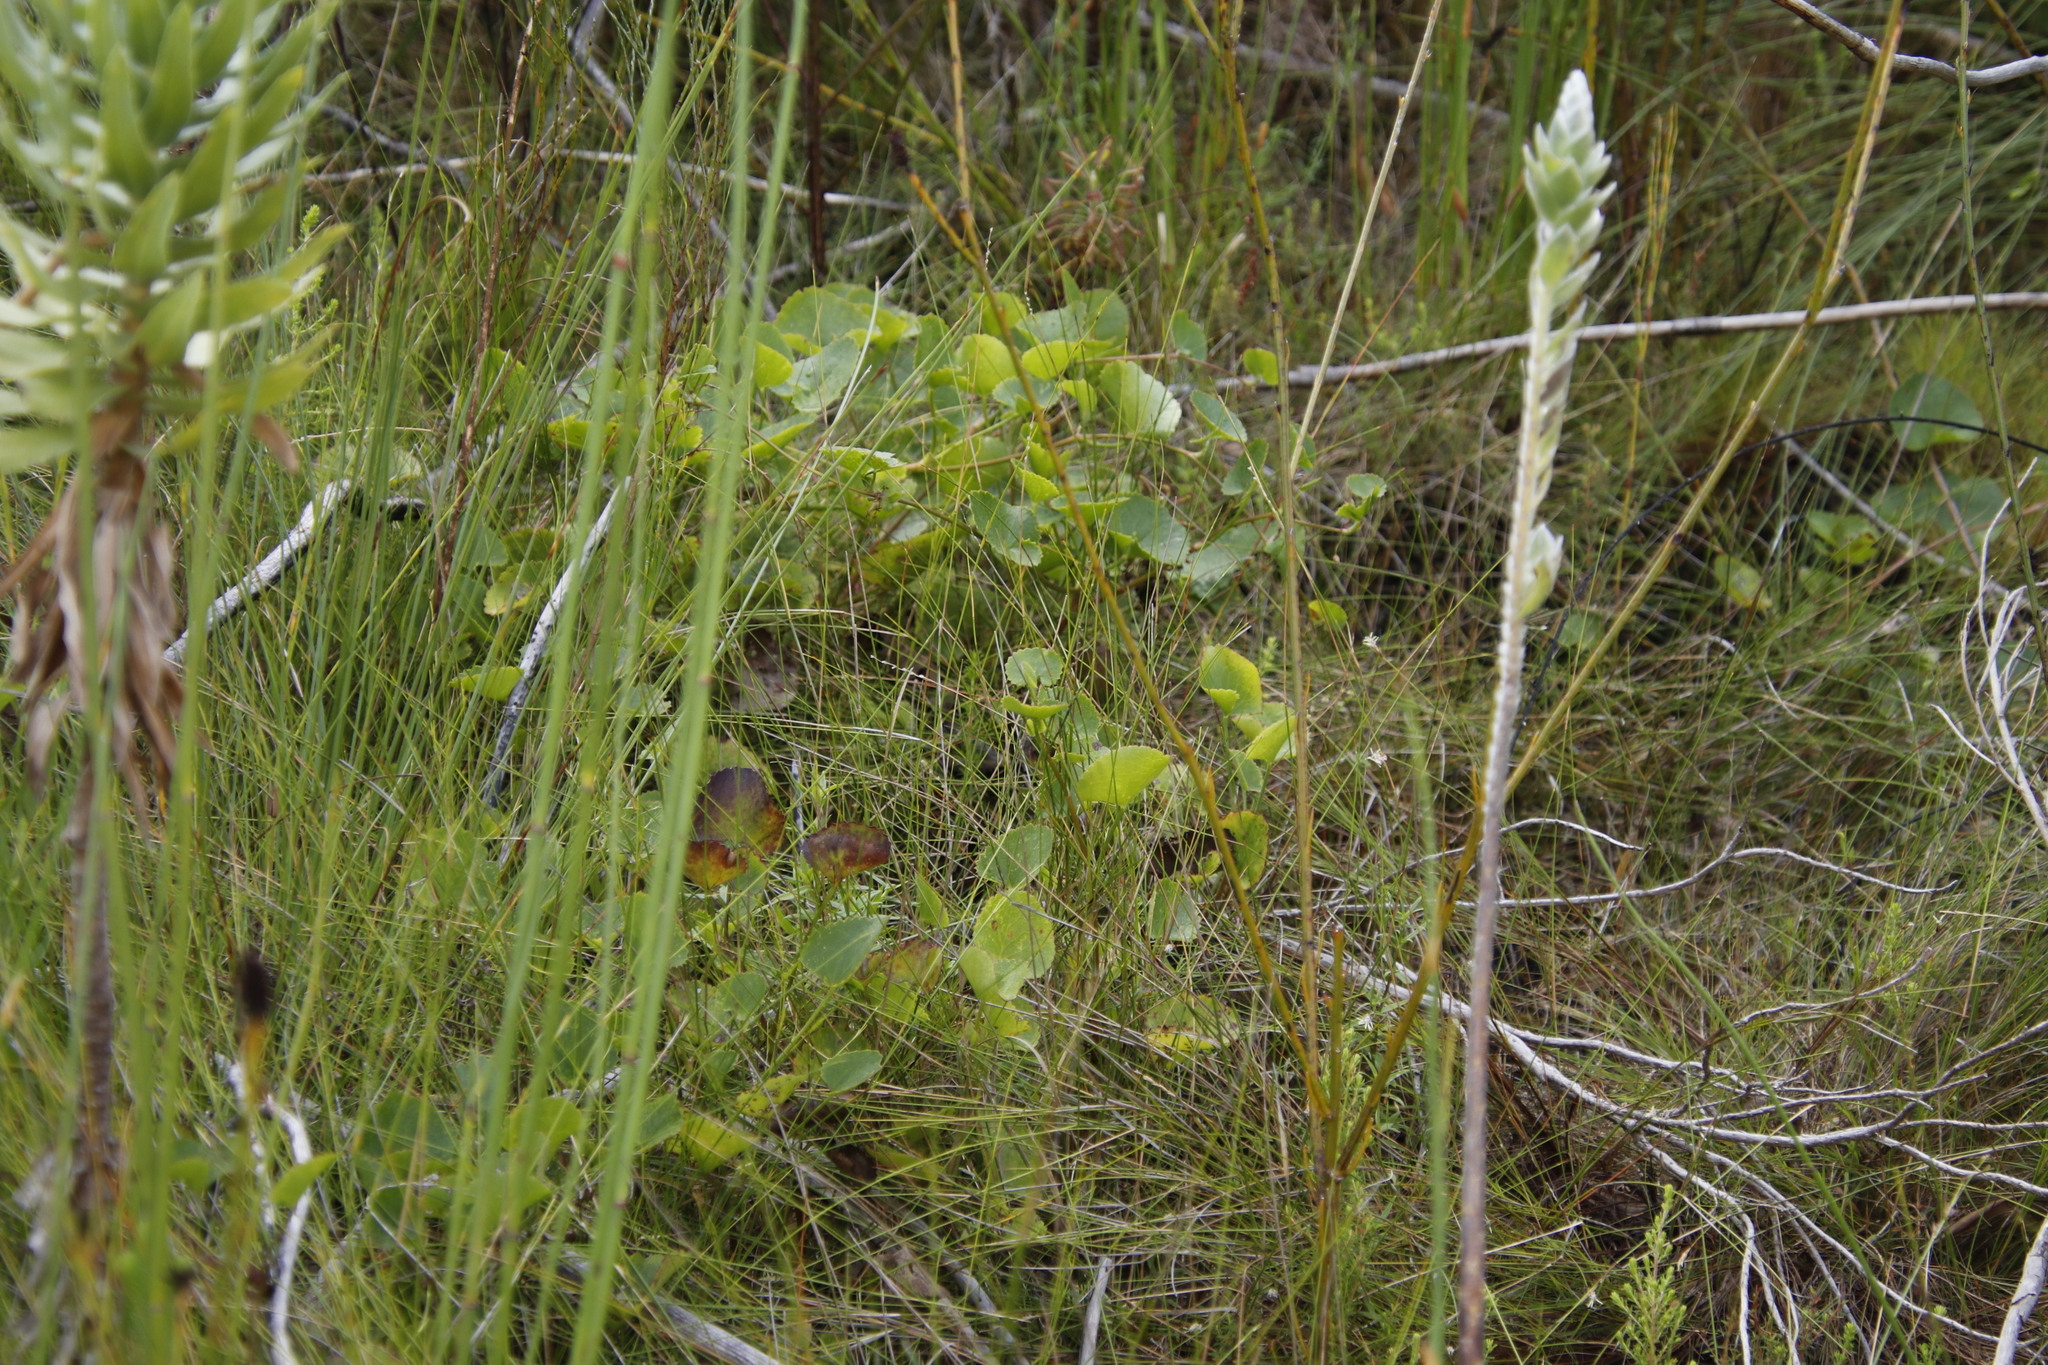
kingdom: Plantae
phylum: Tracheophyta
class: Magnoliopsida
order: Apiales
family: Apiaceae
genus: Centella
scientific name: Centella eriantha
